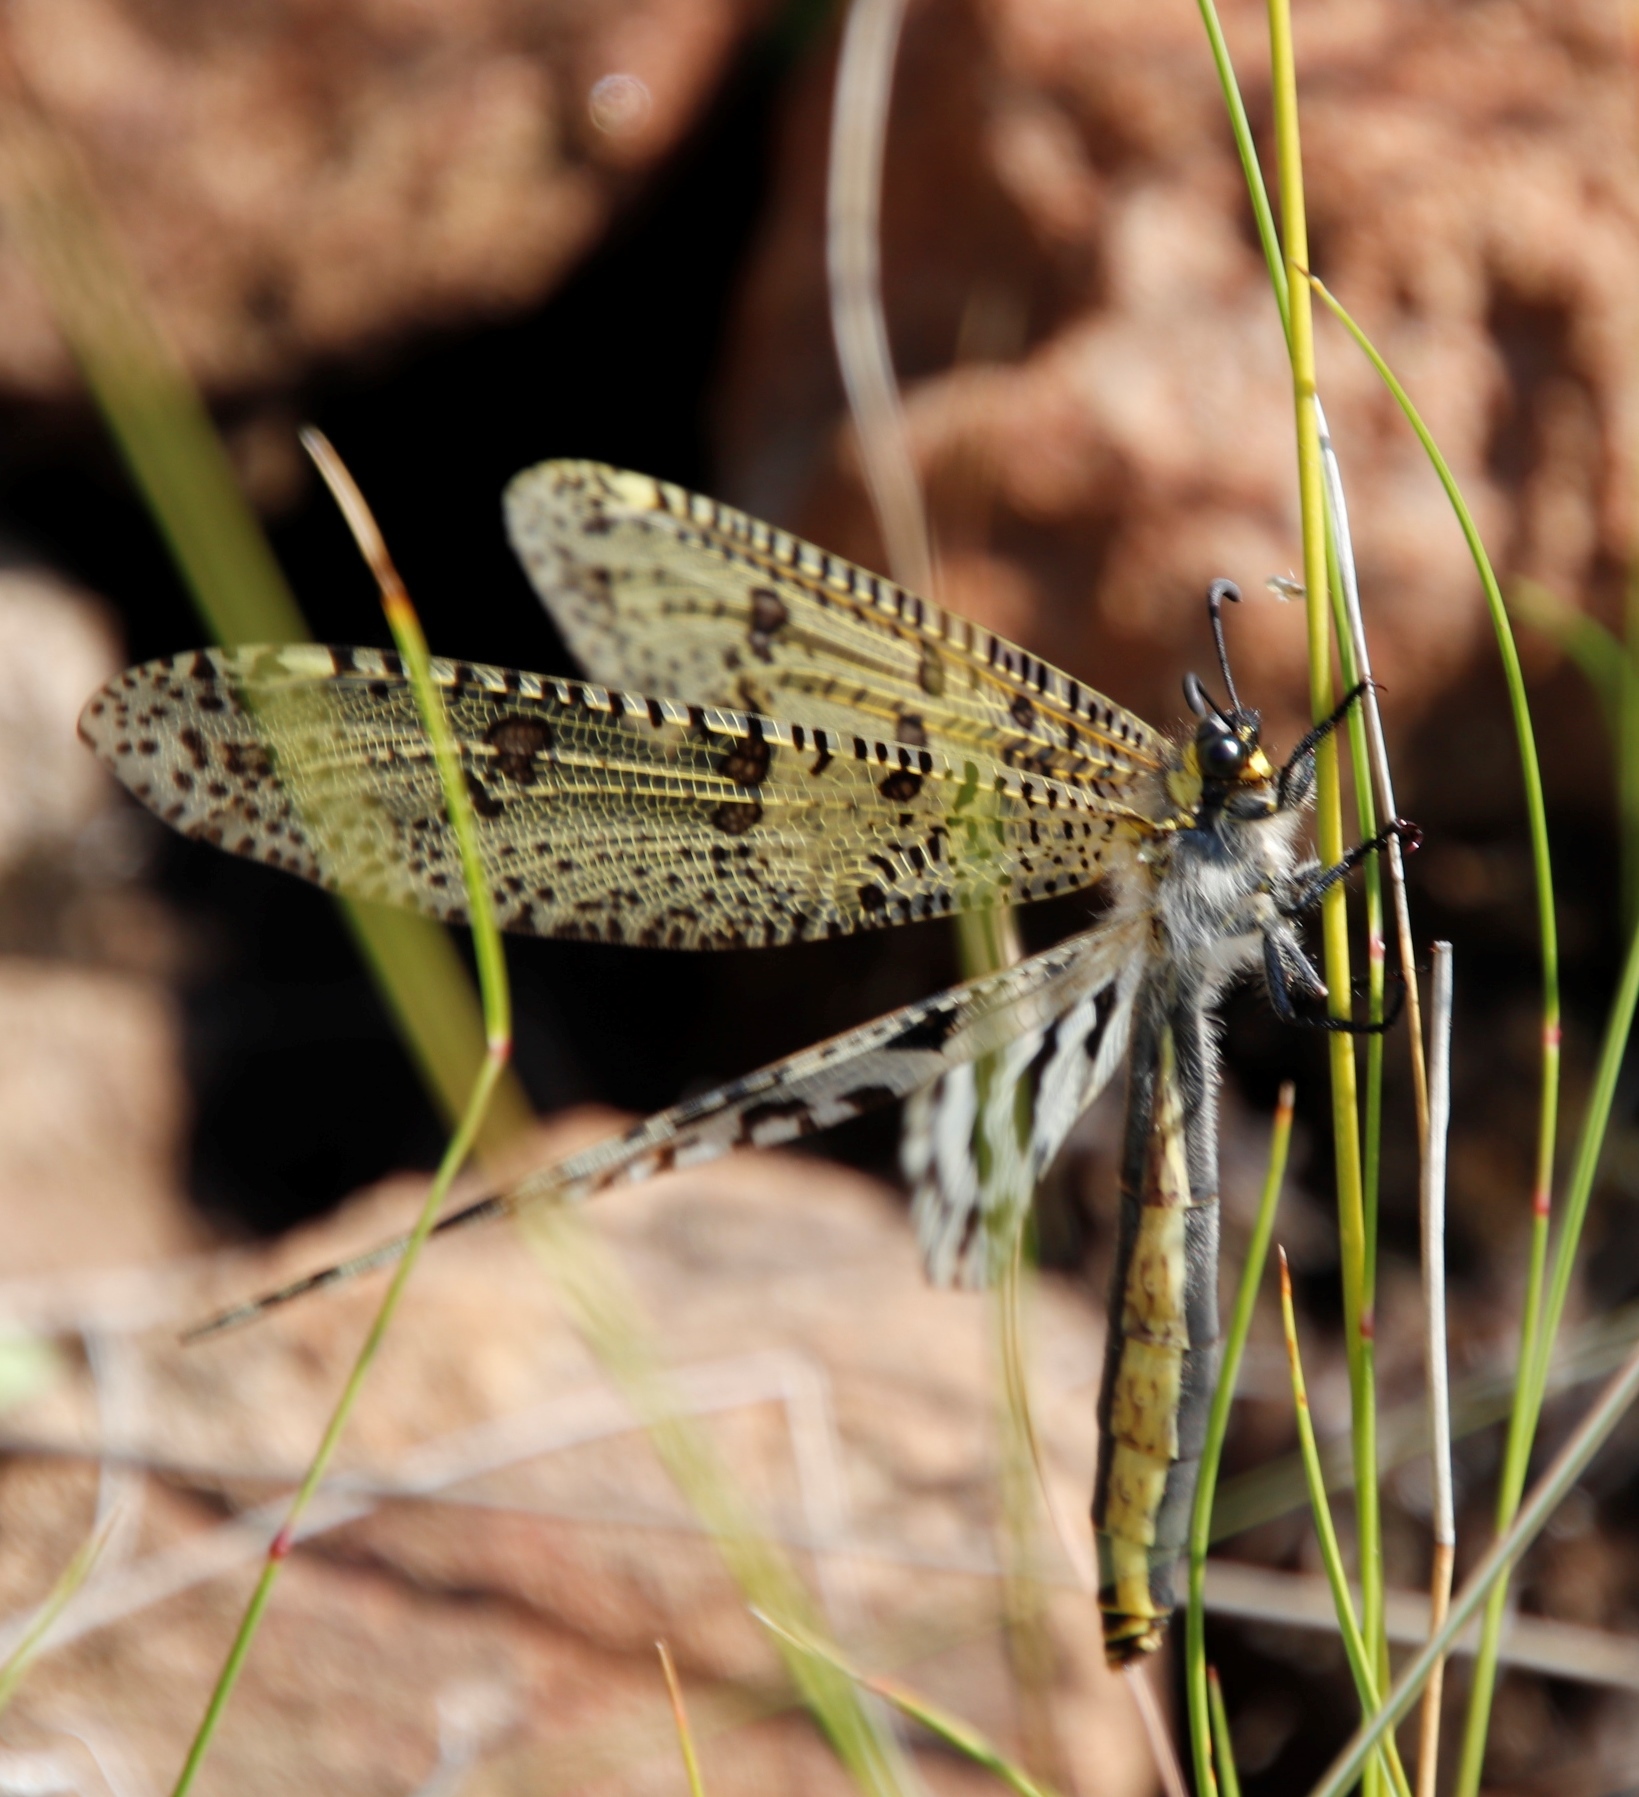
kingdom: Animalia
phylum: Arthropoda
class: Insecta
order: Neuroptera
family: Myrmeleontidae
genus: Palpares
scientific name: Palpares caffer
